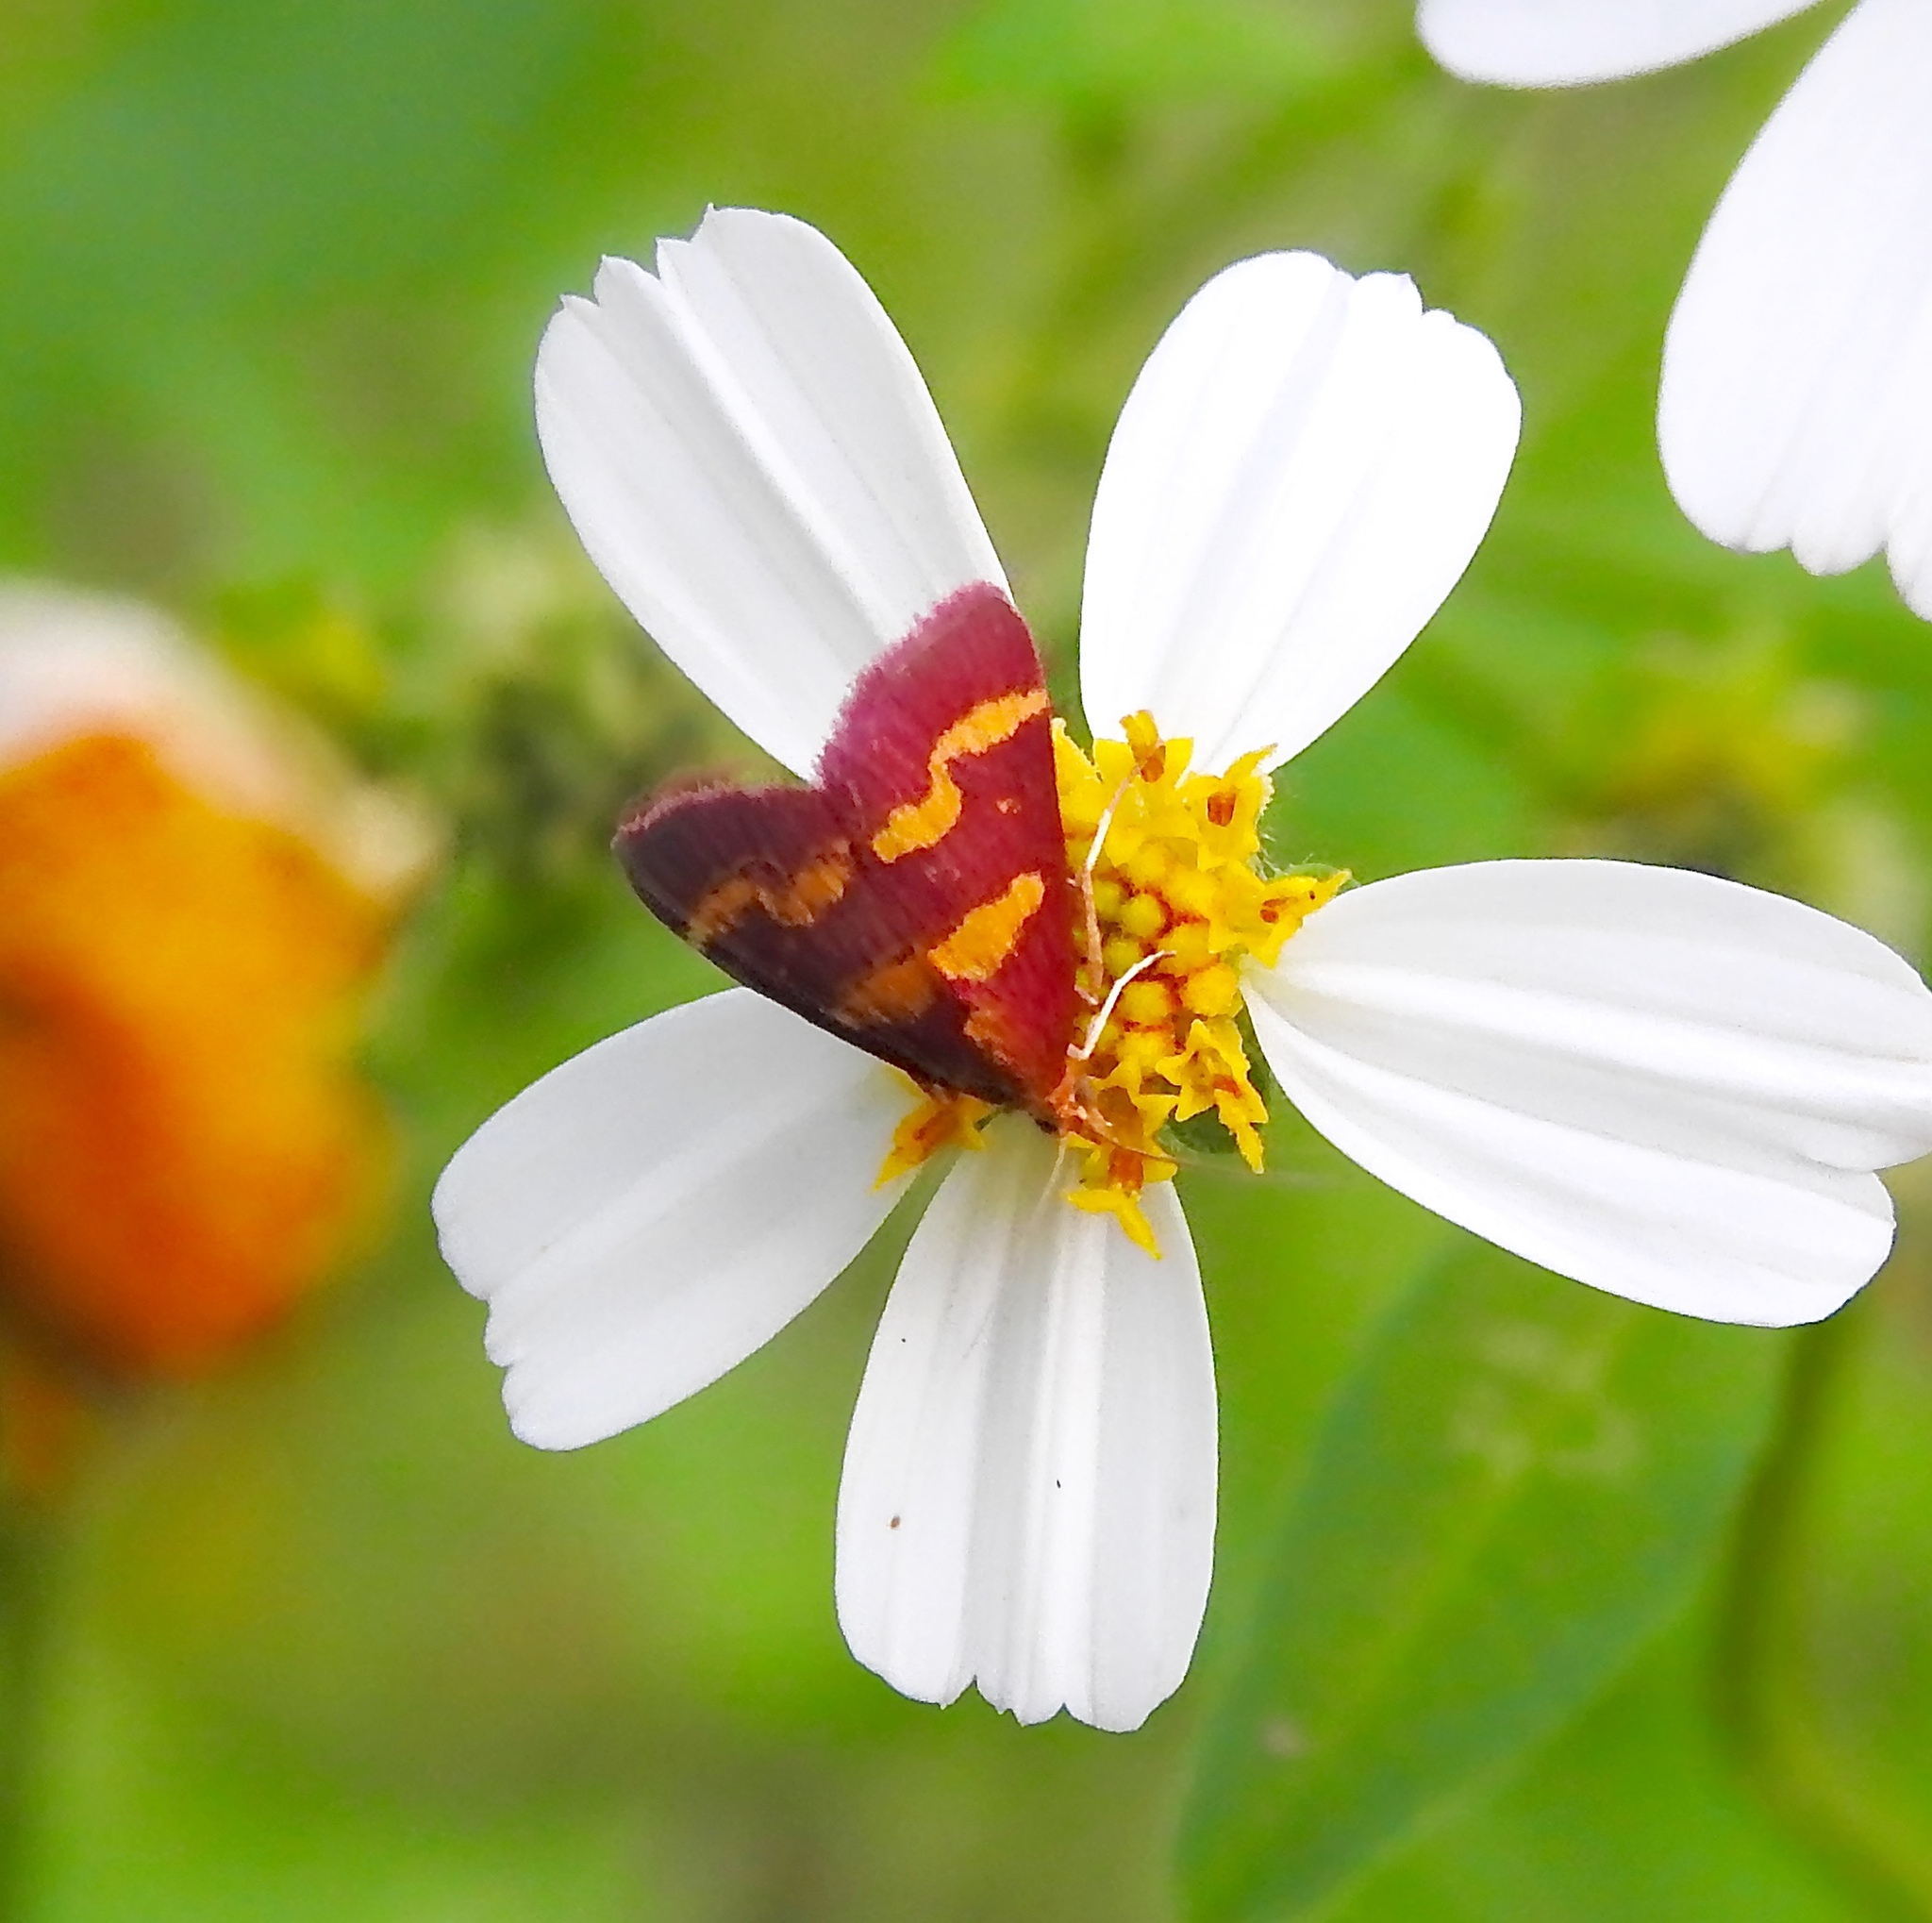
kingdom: Animalia
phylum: Arthropoda
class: Insecta
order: Lepidoptera
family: Crambidae
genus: Pyrausta
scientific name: Pyrausta tyralis
